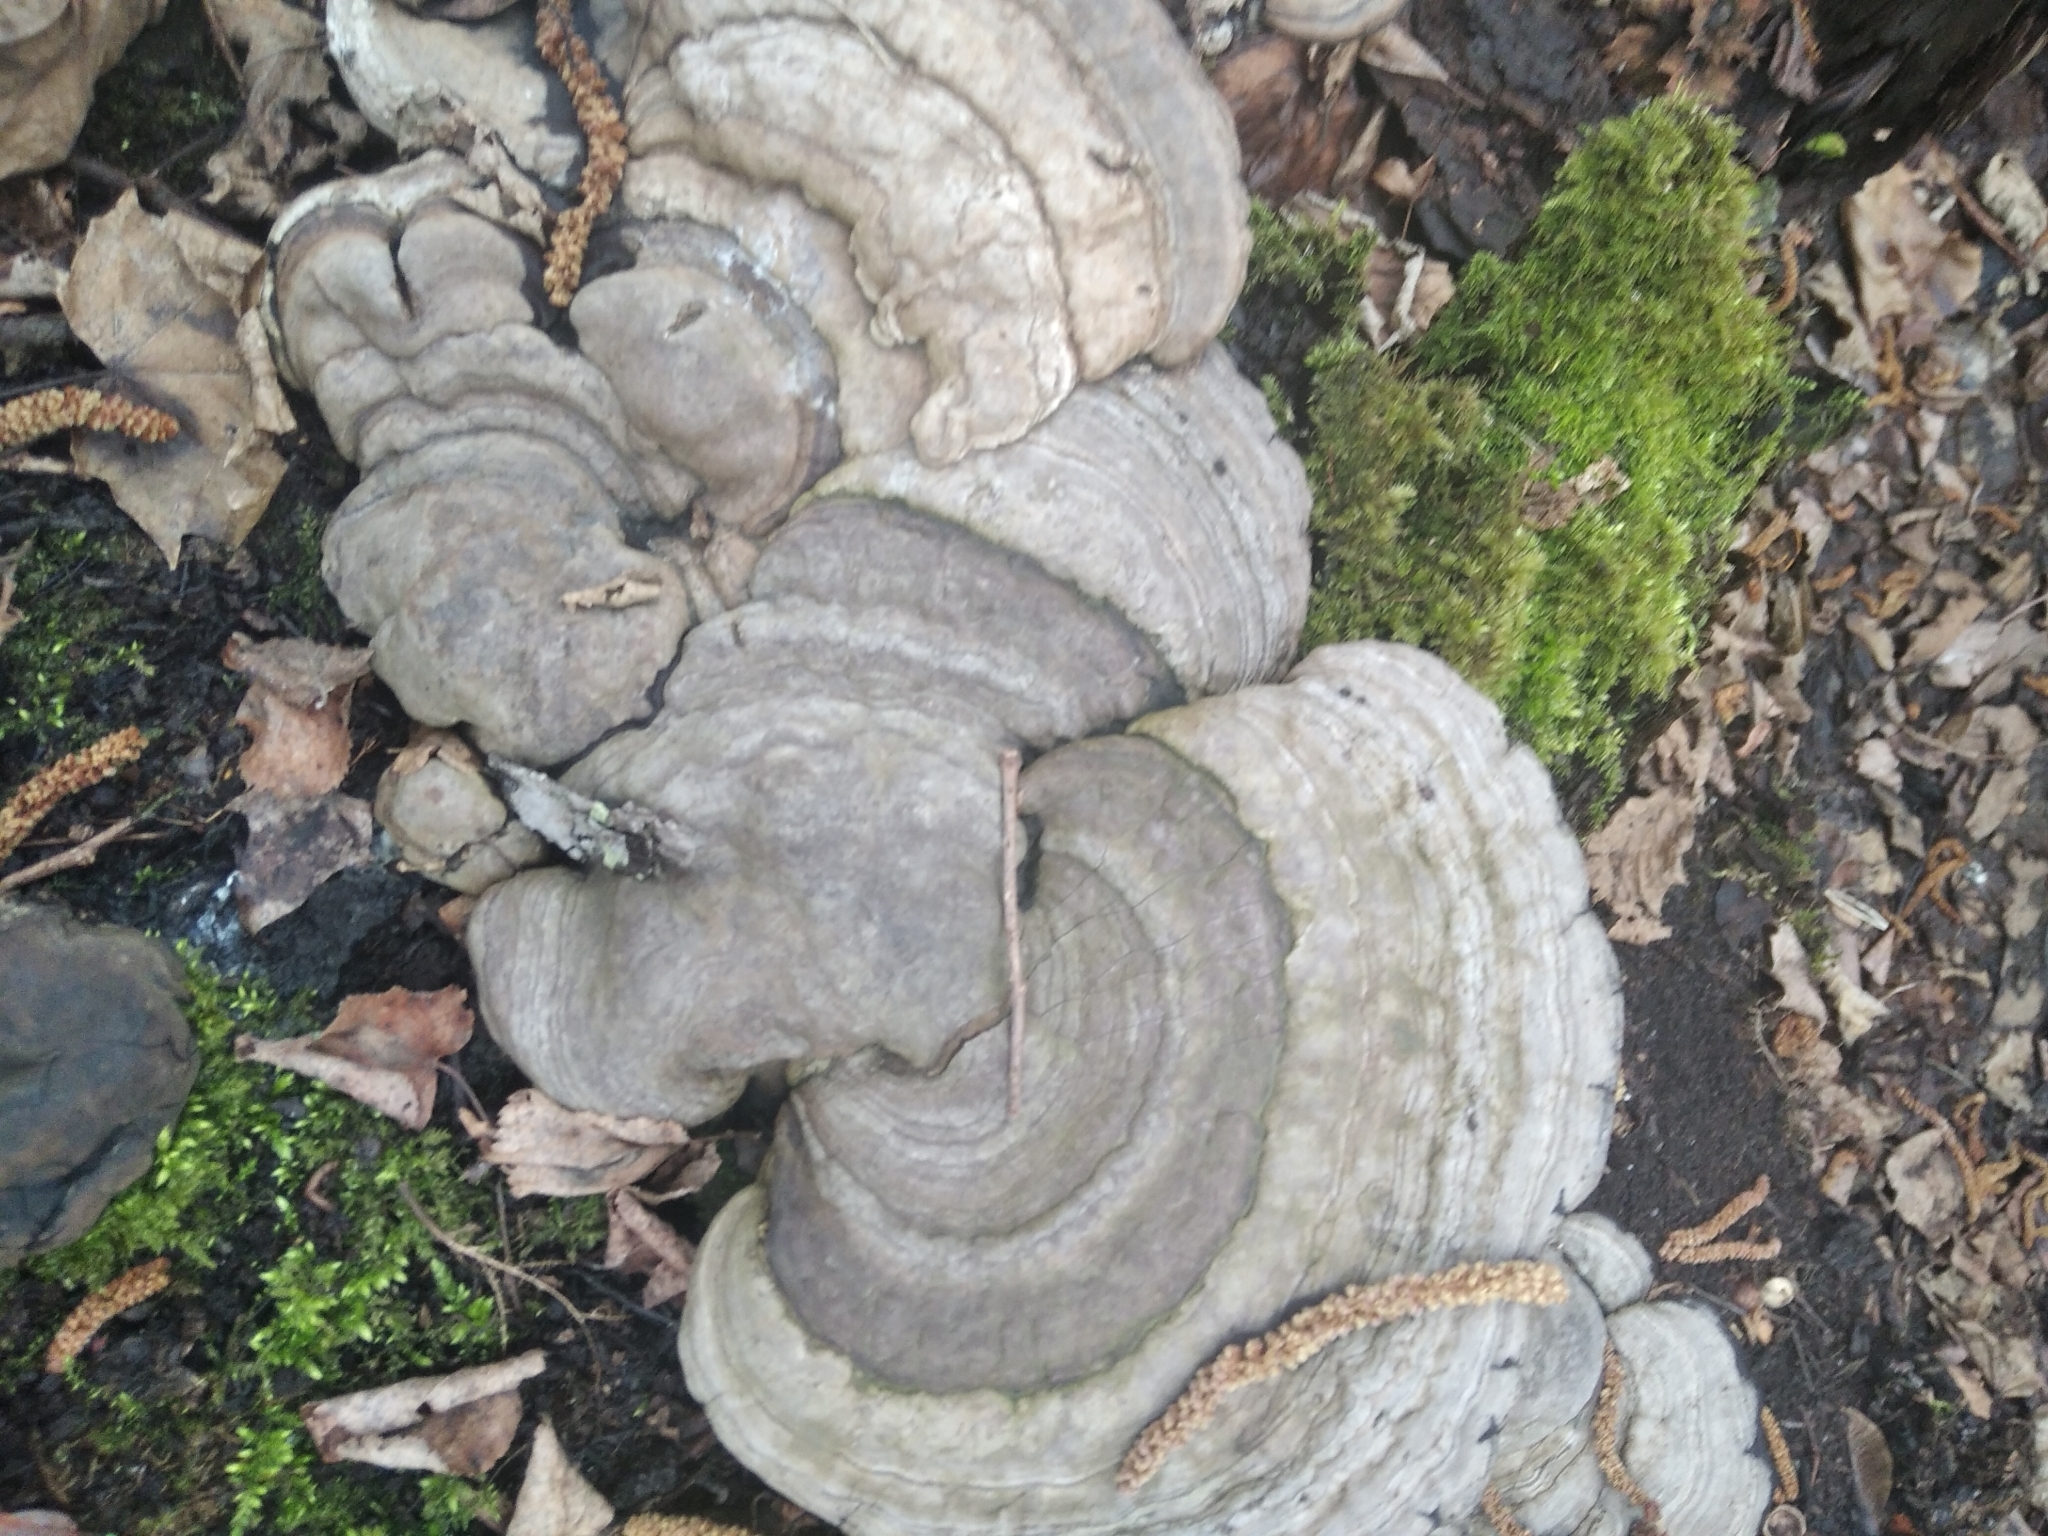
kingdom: Fungi
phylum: Basidiomycota
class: Agaricomycetes
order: Polyporales
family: Polyporaceae
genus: Fomes
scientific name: Fomes fomentarius
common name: Hoof fungus
